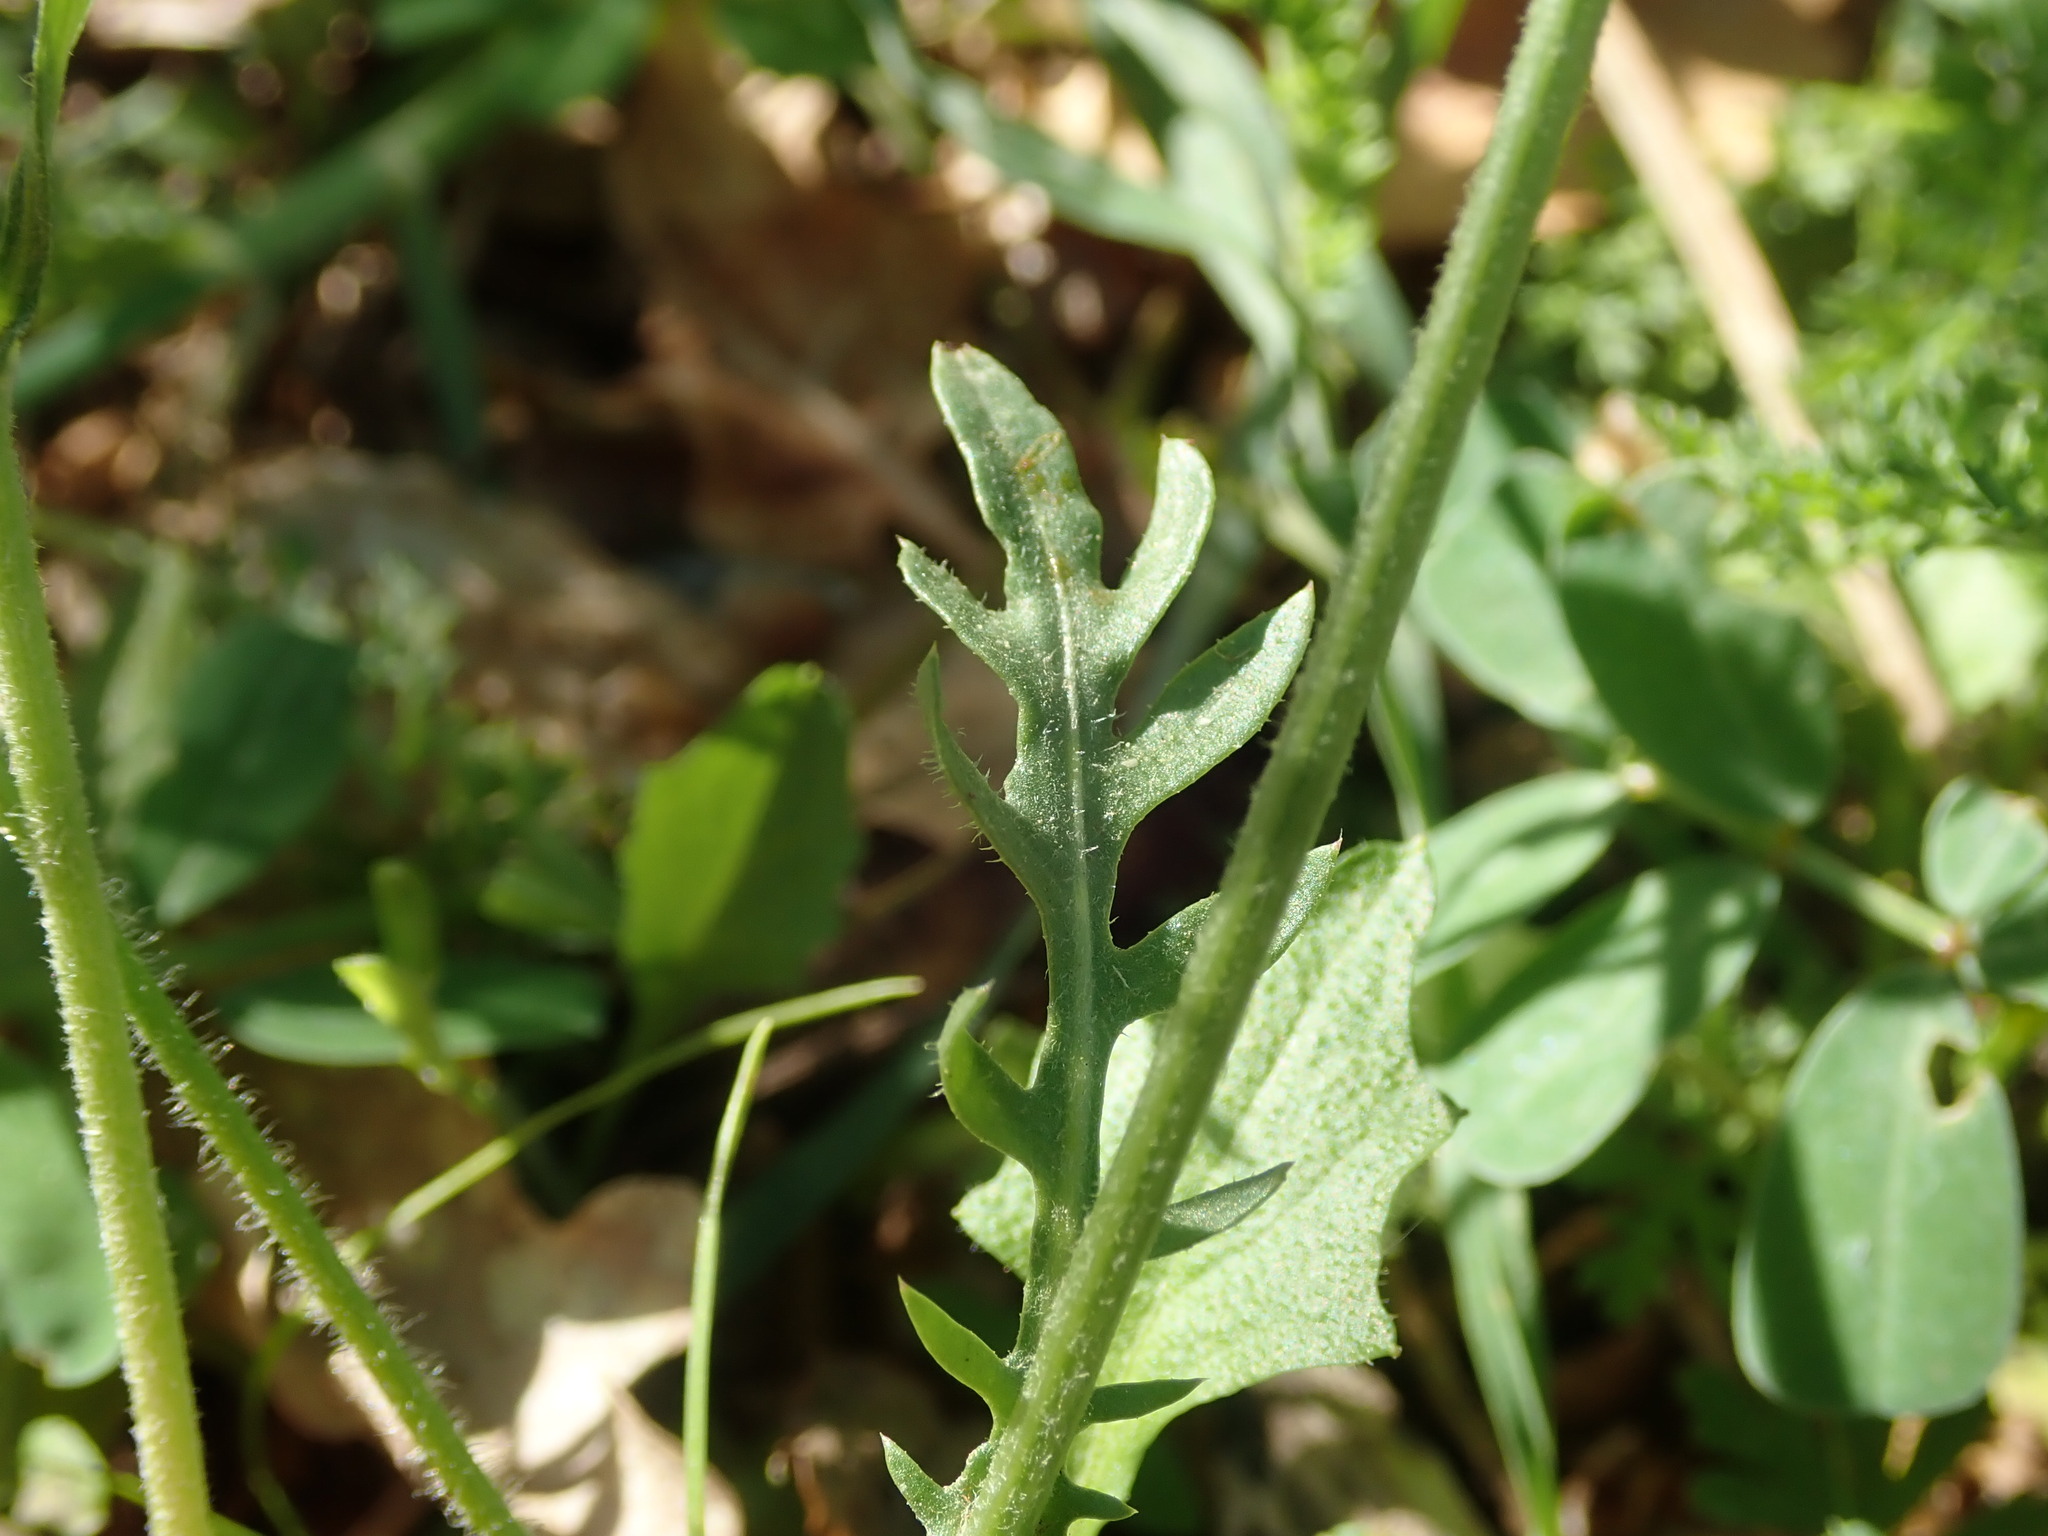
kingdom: Plantae
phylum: Tracheophyta
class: Magnoliopsida
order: Asterales
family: Asteraceae
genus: Crepis
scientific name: Crepis rubra
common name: Pink hawk's-beard
